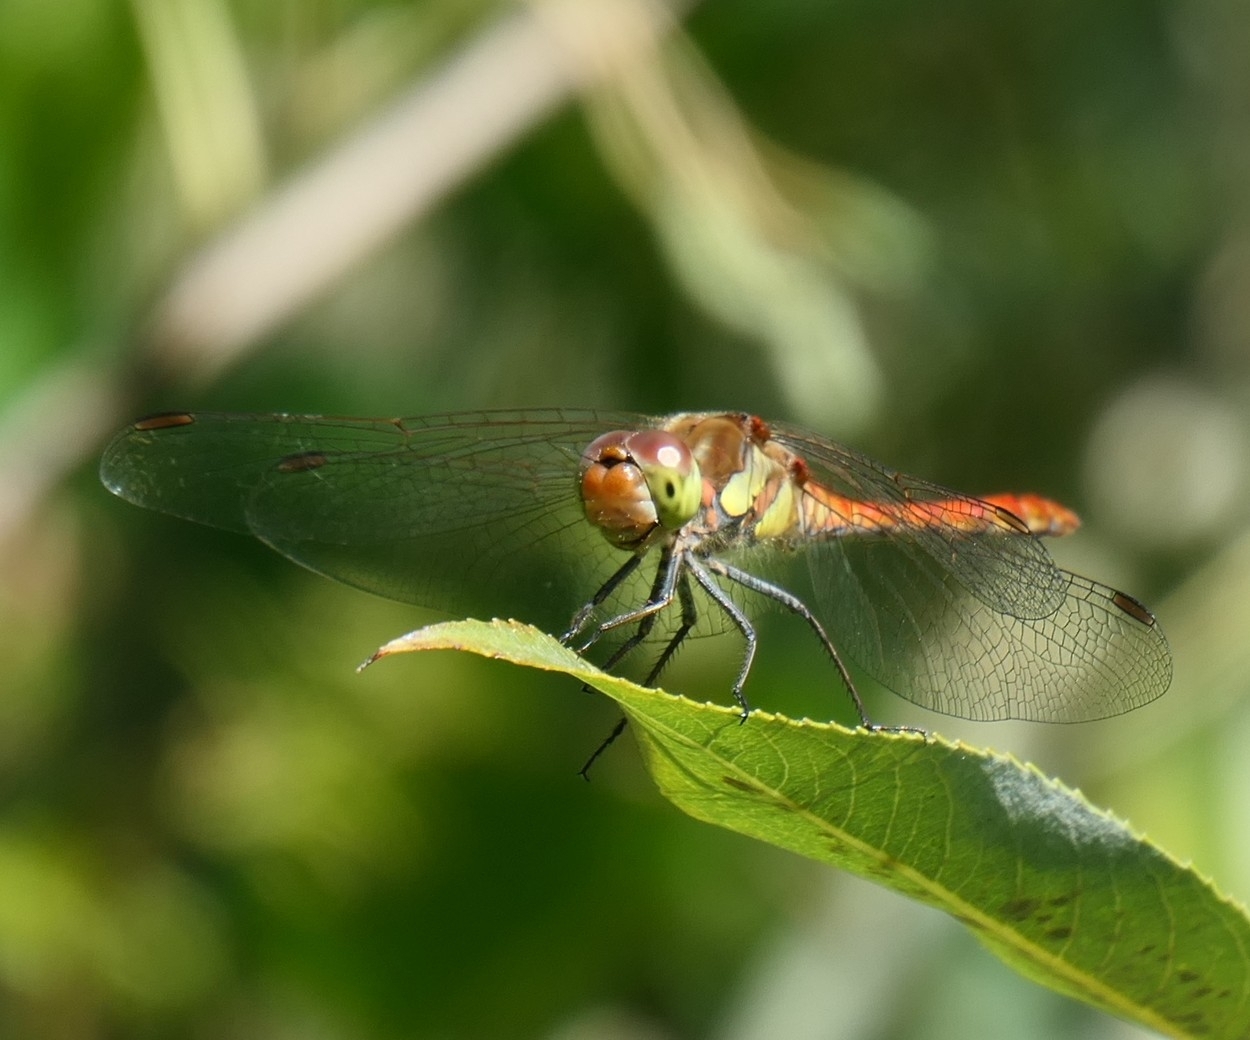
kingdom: Animalia
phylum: Arthropoda
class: Insecta
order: Odonata
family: Libellulidae
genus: Sympetrum
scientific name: Sympetrum striolatum
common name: Common darter
